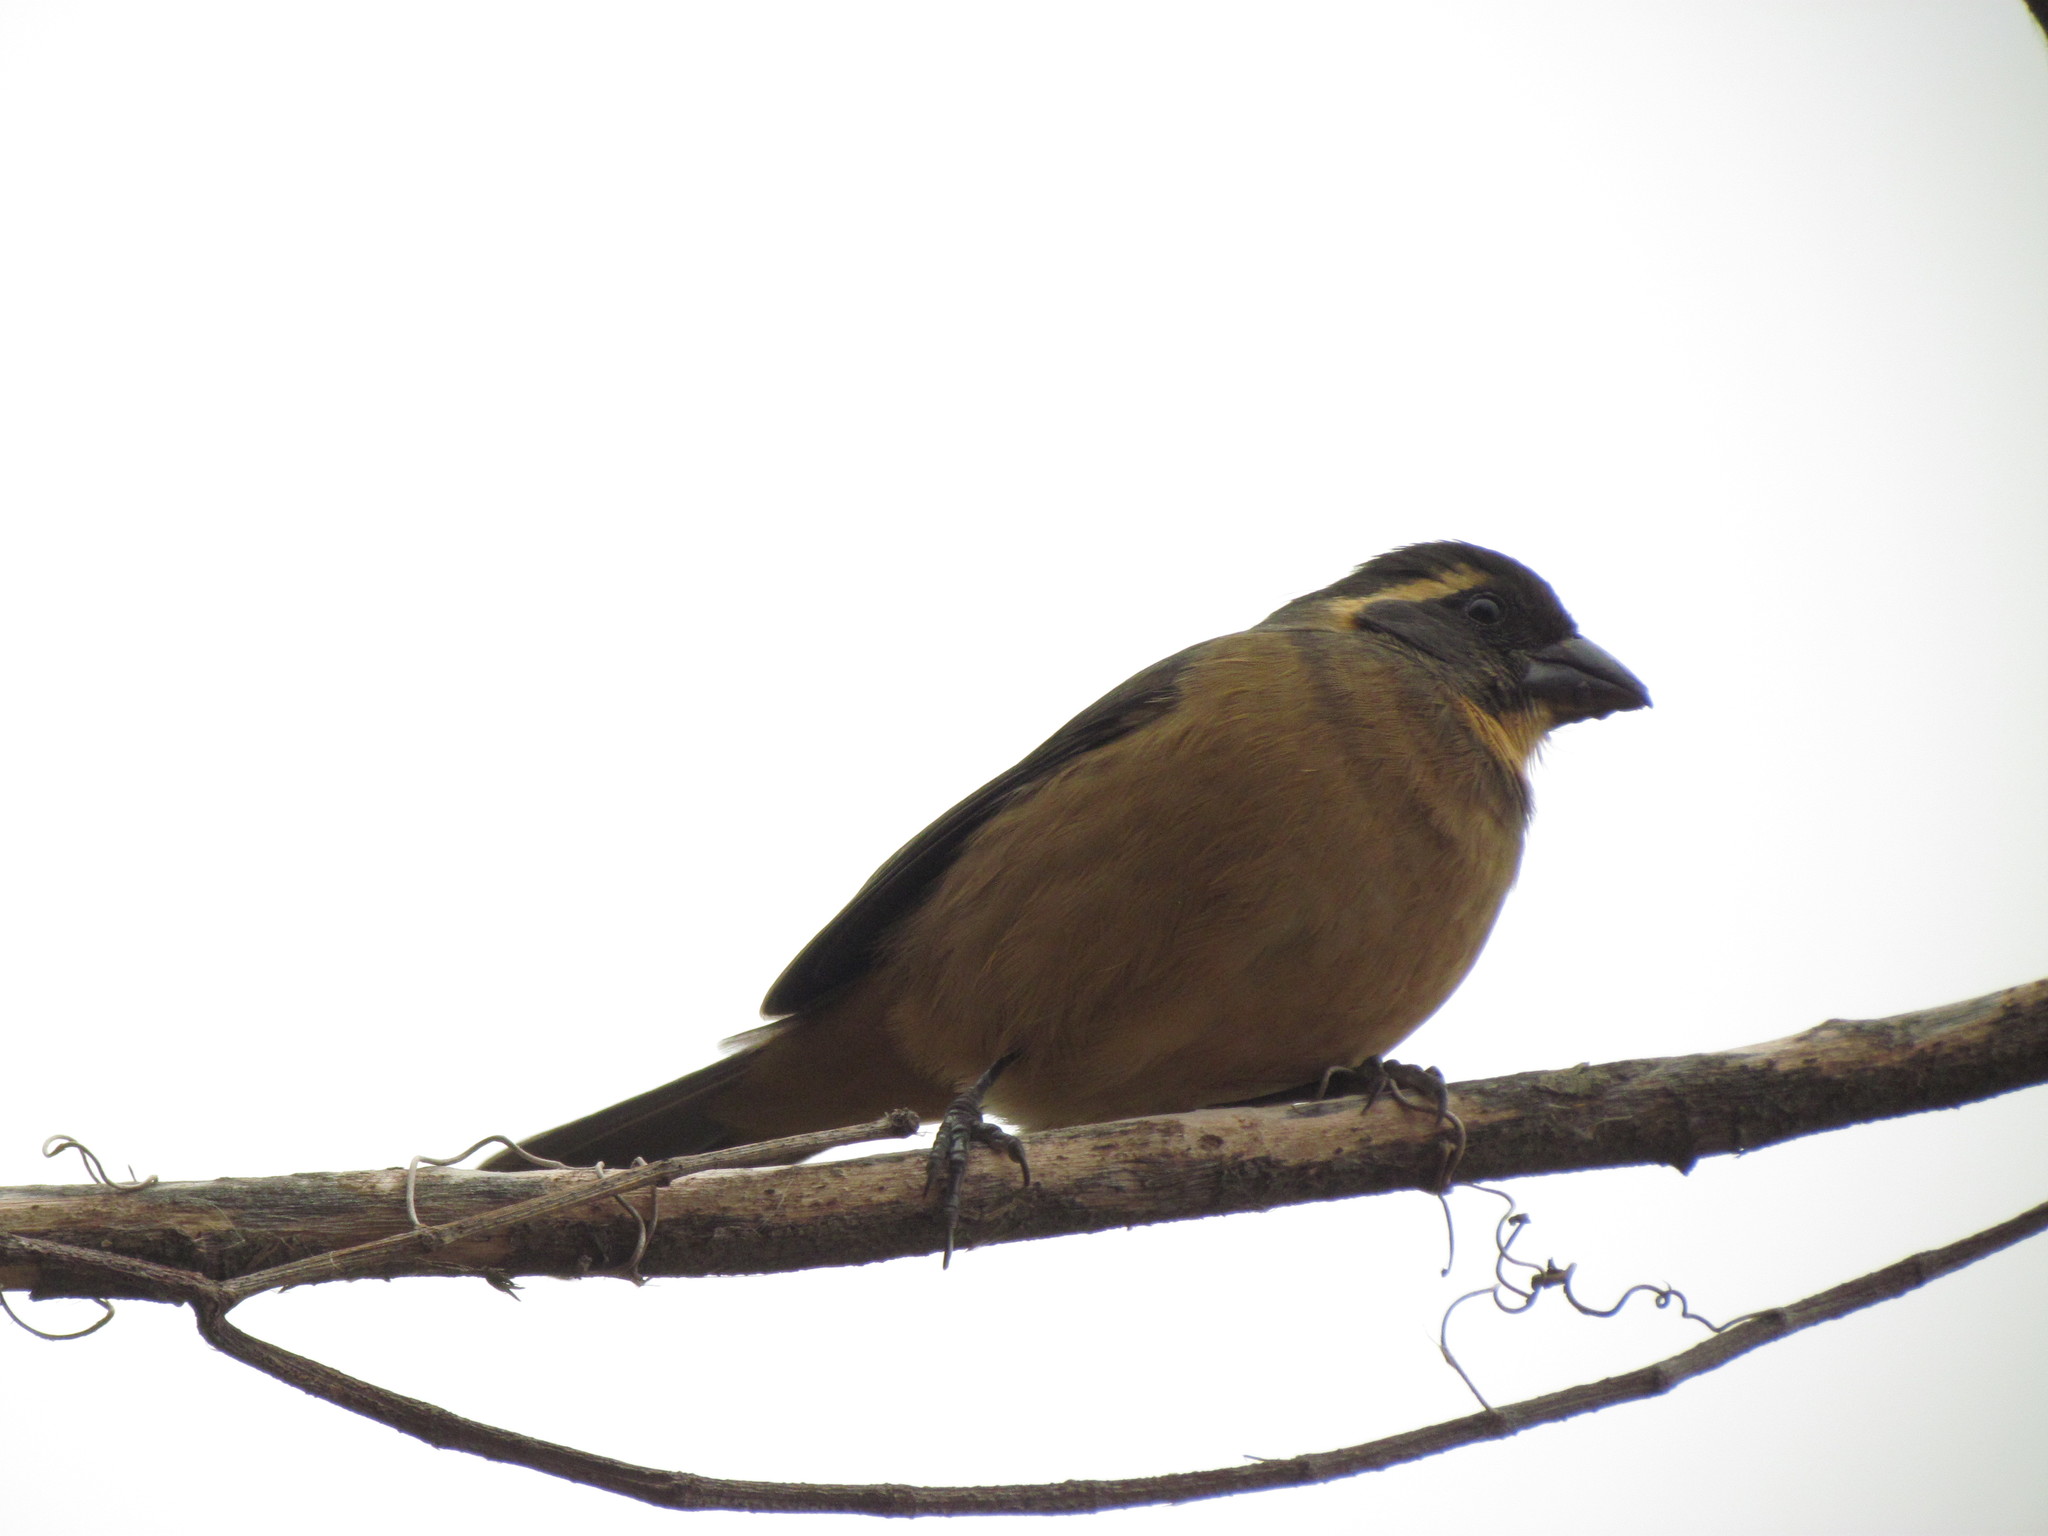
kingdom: Animalia
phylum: Chordata
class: Aves
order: Passeriformes
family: Thraupidae
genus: Saltator
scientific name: Saltator aurantiirostris
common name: Golden-billed saltator
